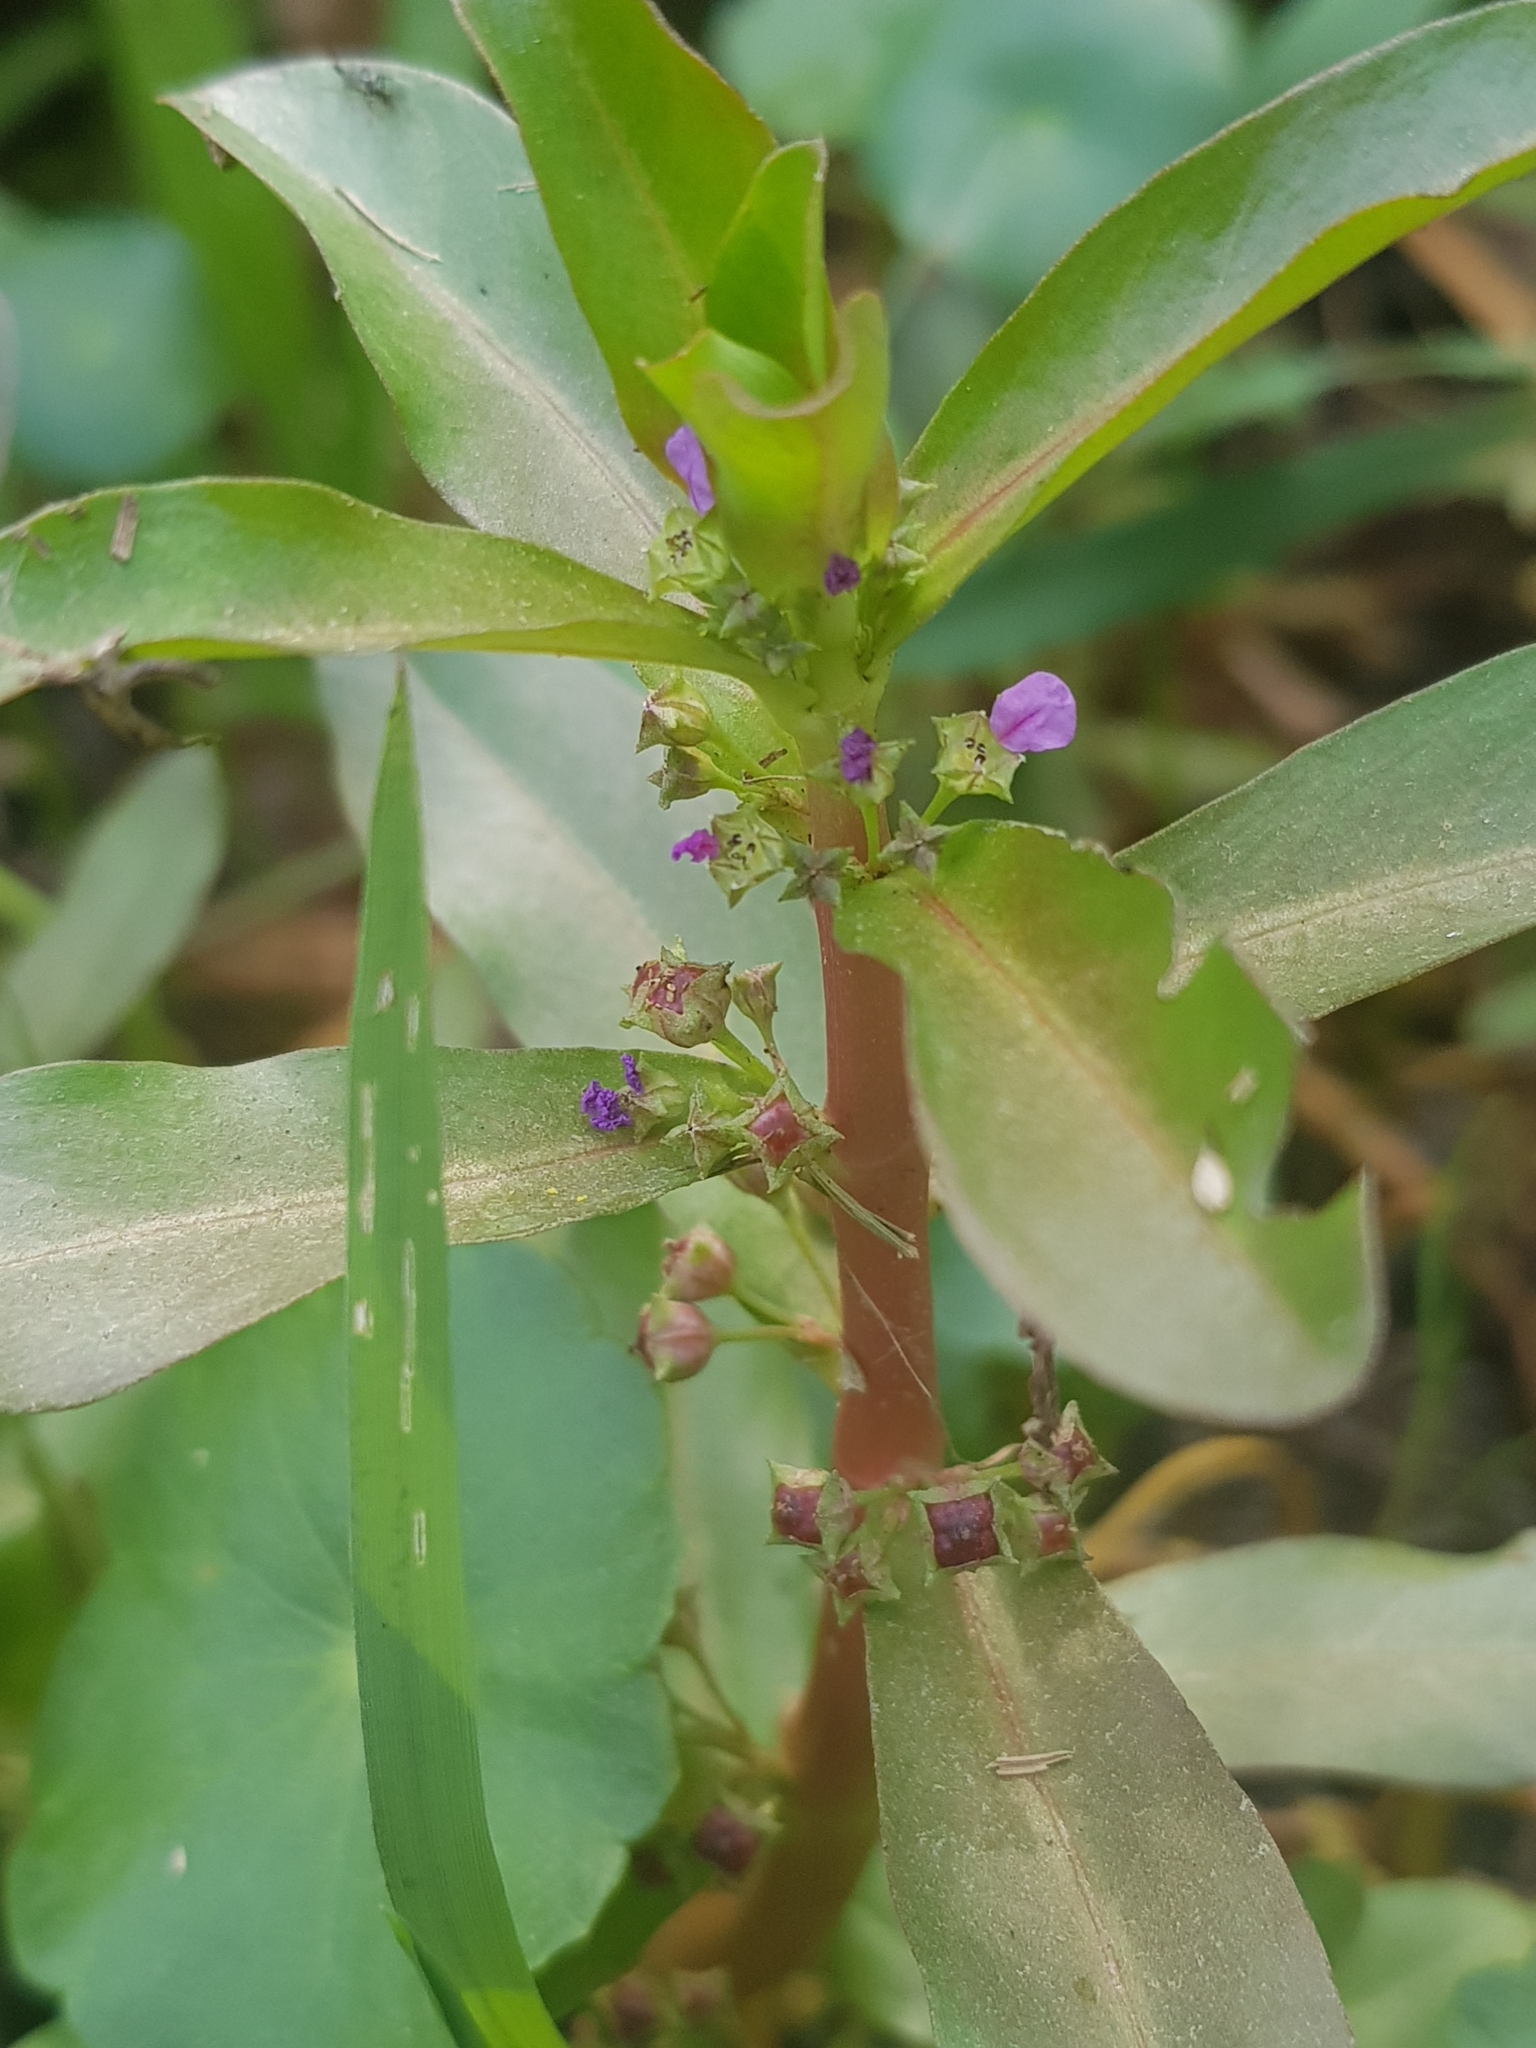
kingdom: Plantae
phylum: Tracheophyta
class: Magnoliopsida
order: Myrtales
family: Lythraceae
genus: Ammannia
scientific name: Ammannia crassicaulis
